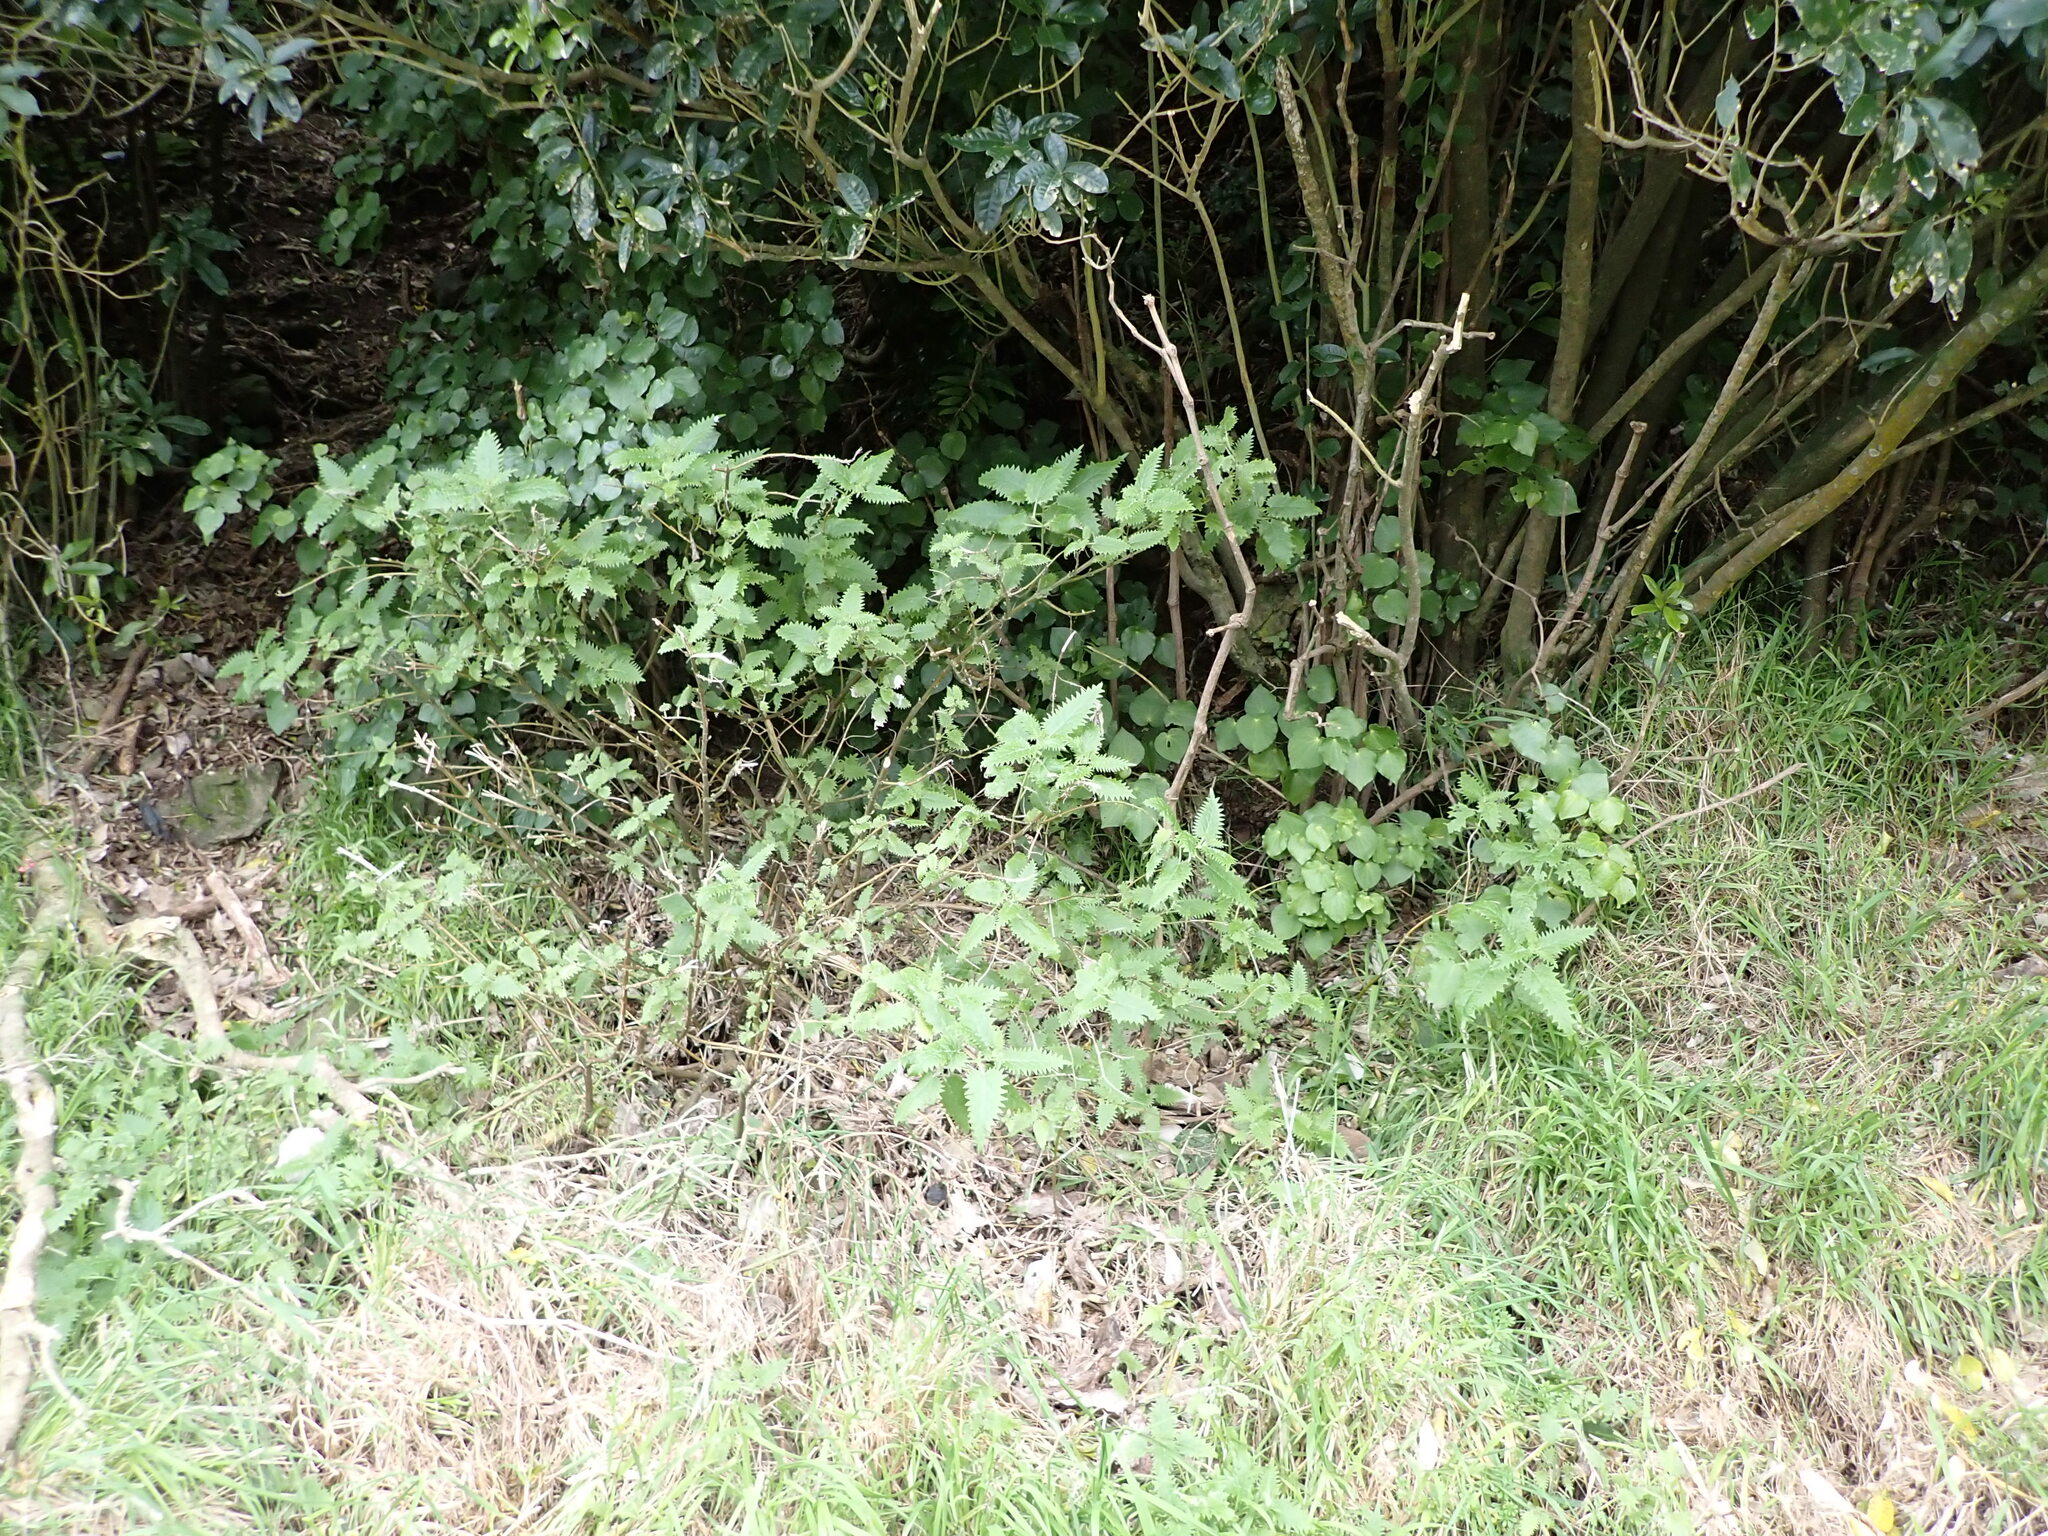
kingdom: Plantae
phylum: Tracheophyta
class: Magnoliopsida
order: Rosales
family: Urticaceae
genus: Urtica
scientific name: Urtica ferox
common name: Tree nettle
